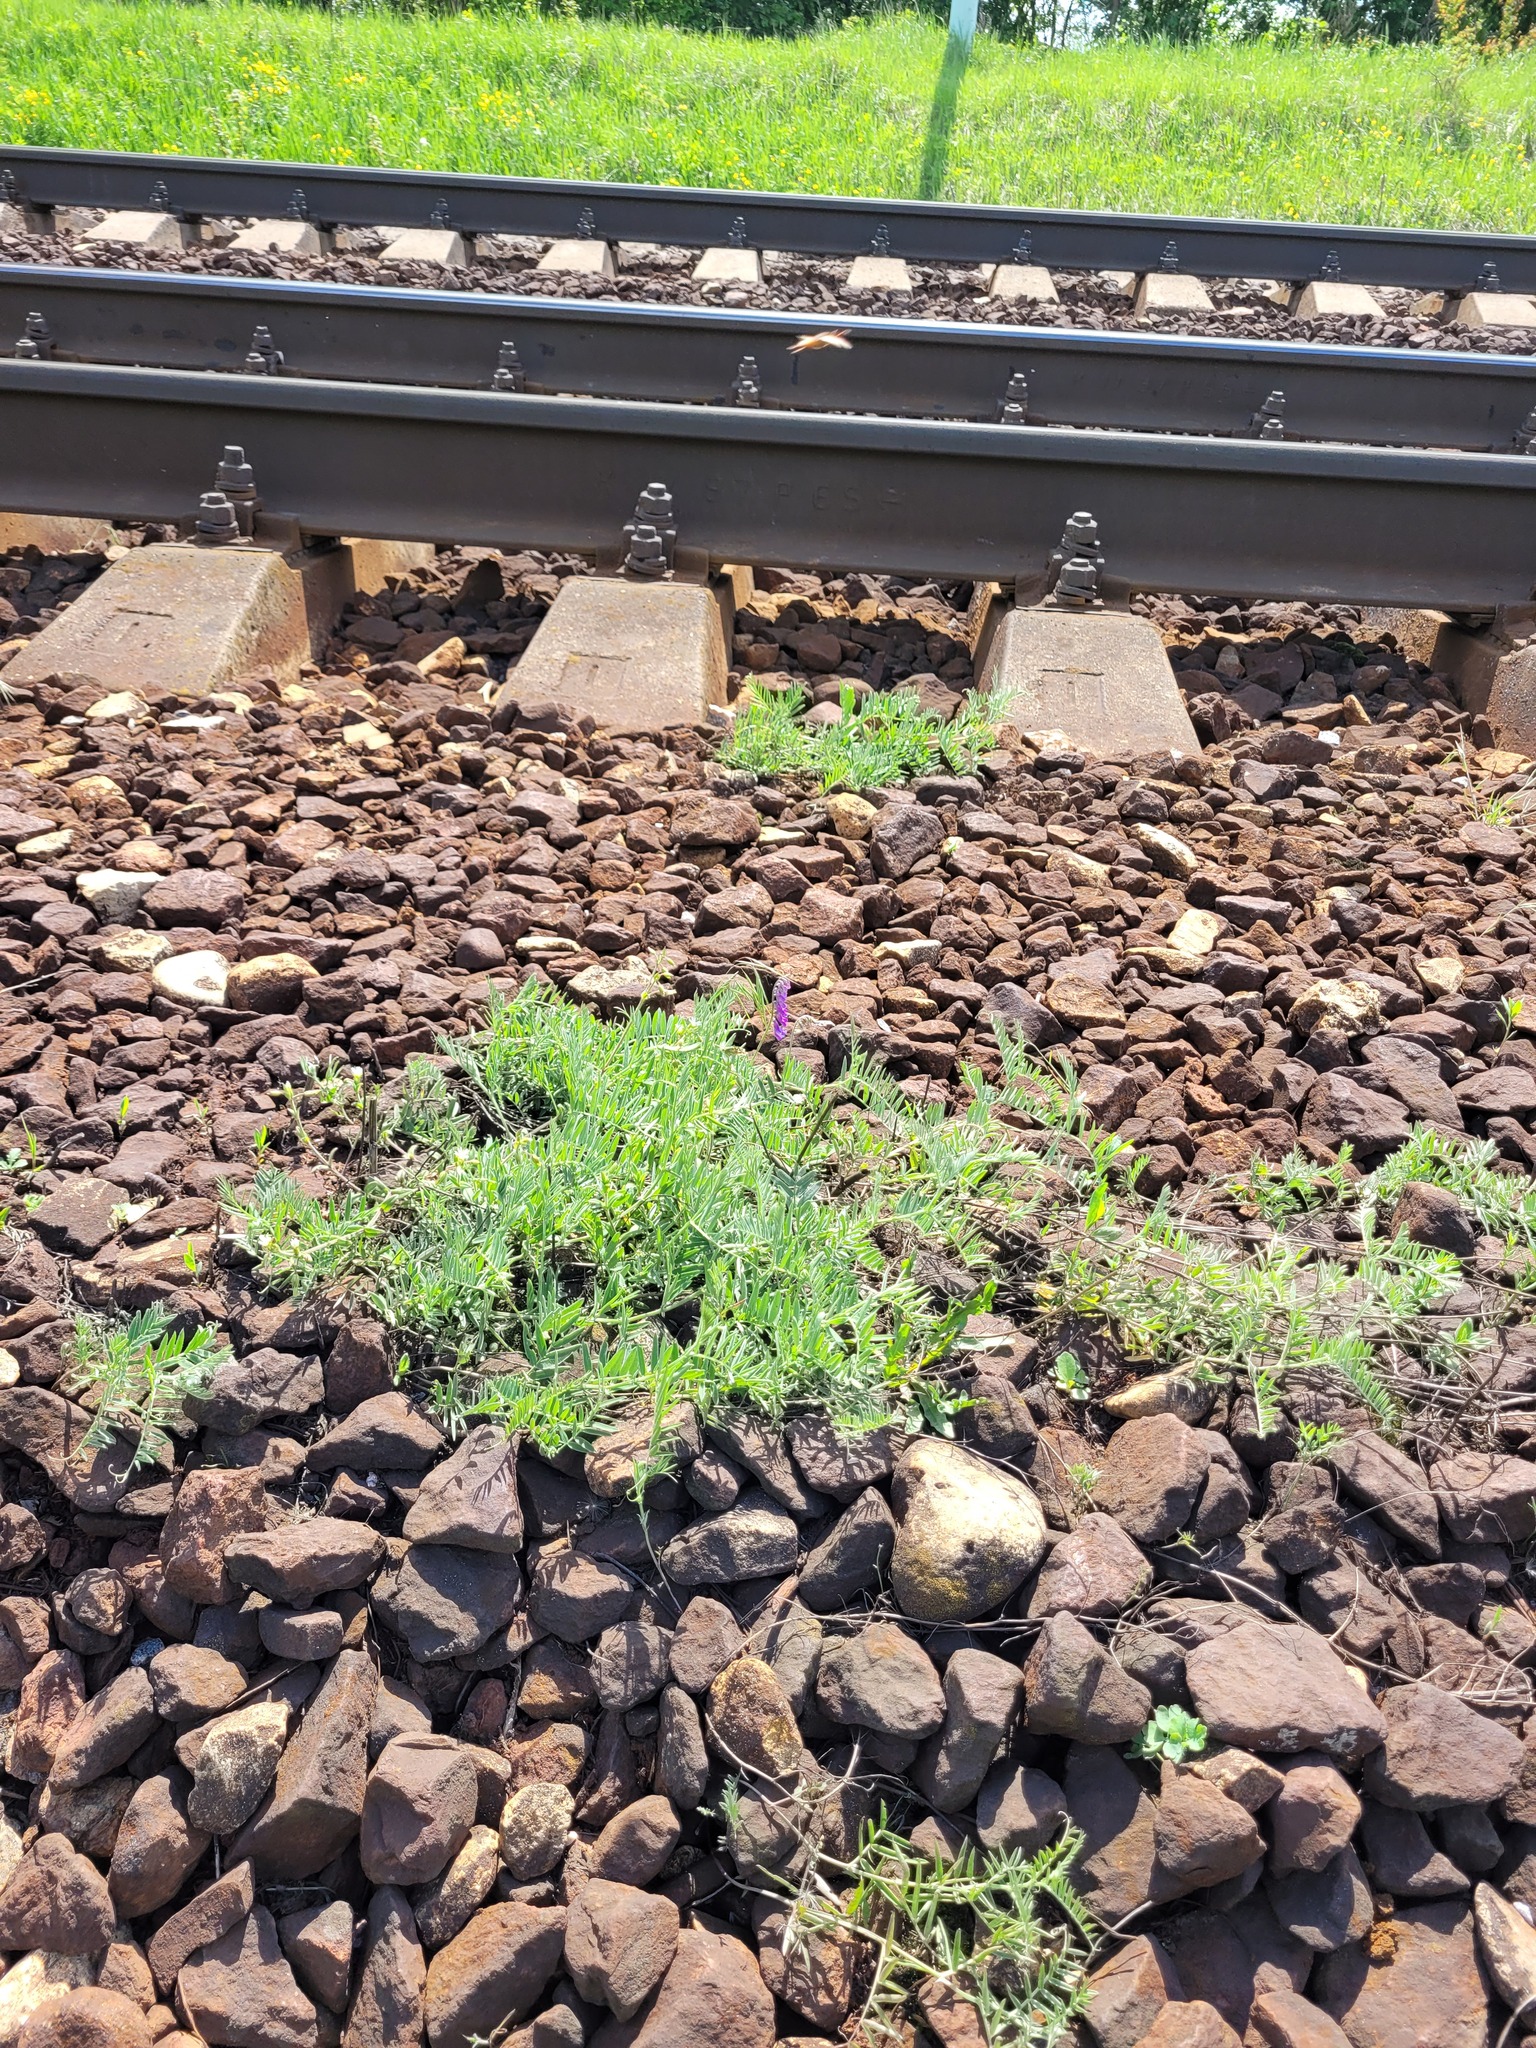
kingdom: Plantae
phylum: Tracheophyta
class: Magnoliopsida
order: Fabales
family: Fabaceae
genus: Vicia
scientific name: Vicia cracca
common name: Bird vetch
